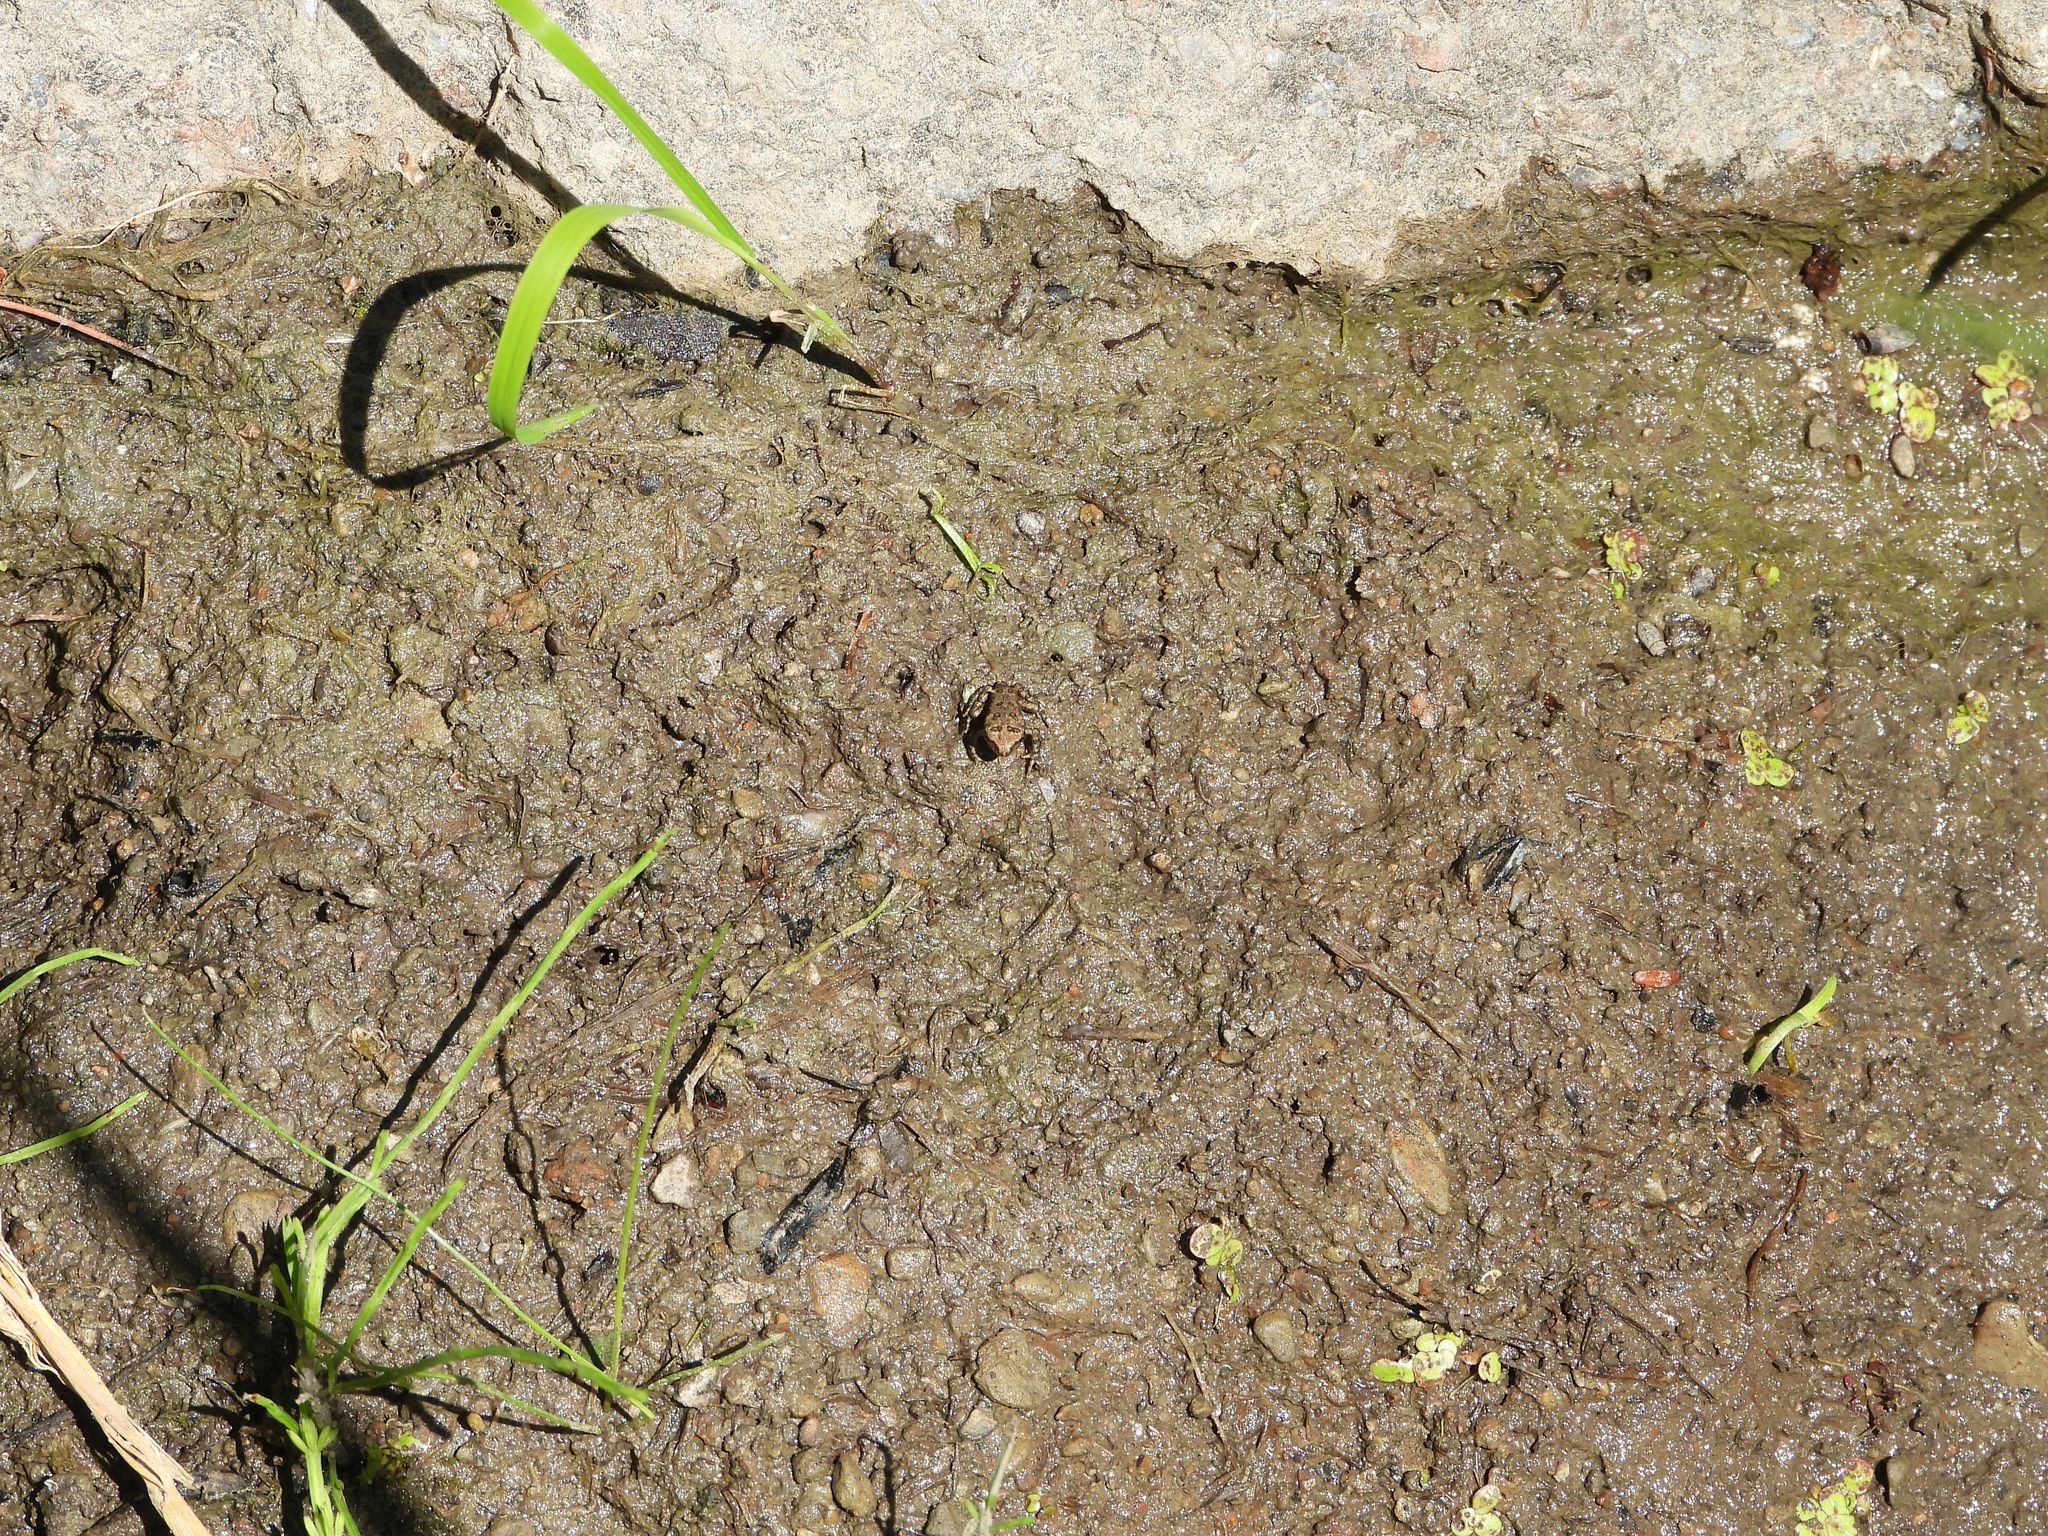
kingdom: Animalia
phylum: Chordata
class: Amphibia
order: Anura
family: Bufonidae
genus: Anaxyrus
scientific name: Anaxyrus americanus
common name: American toad
